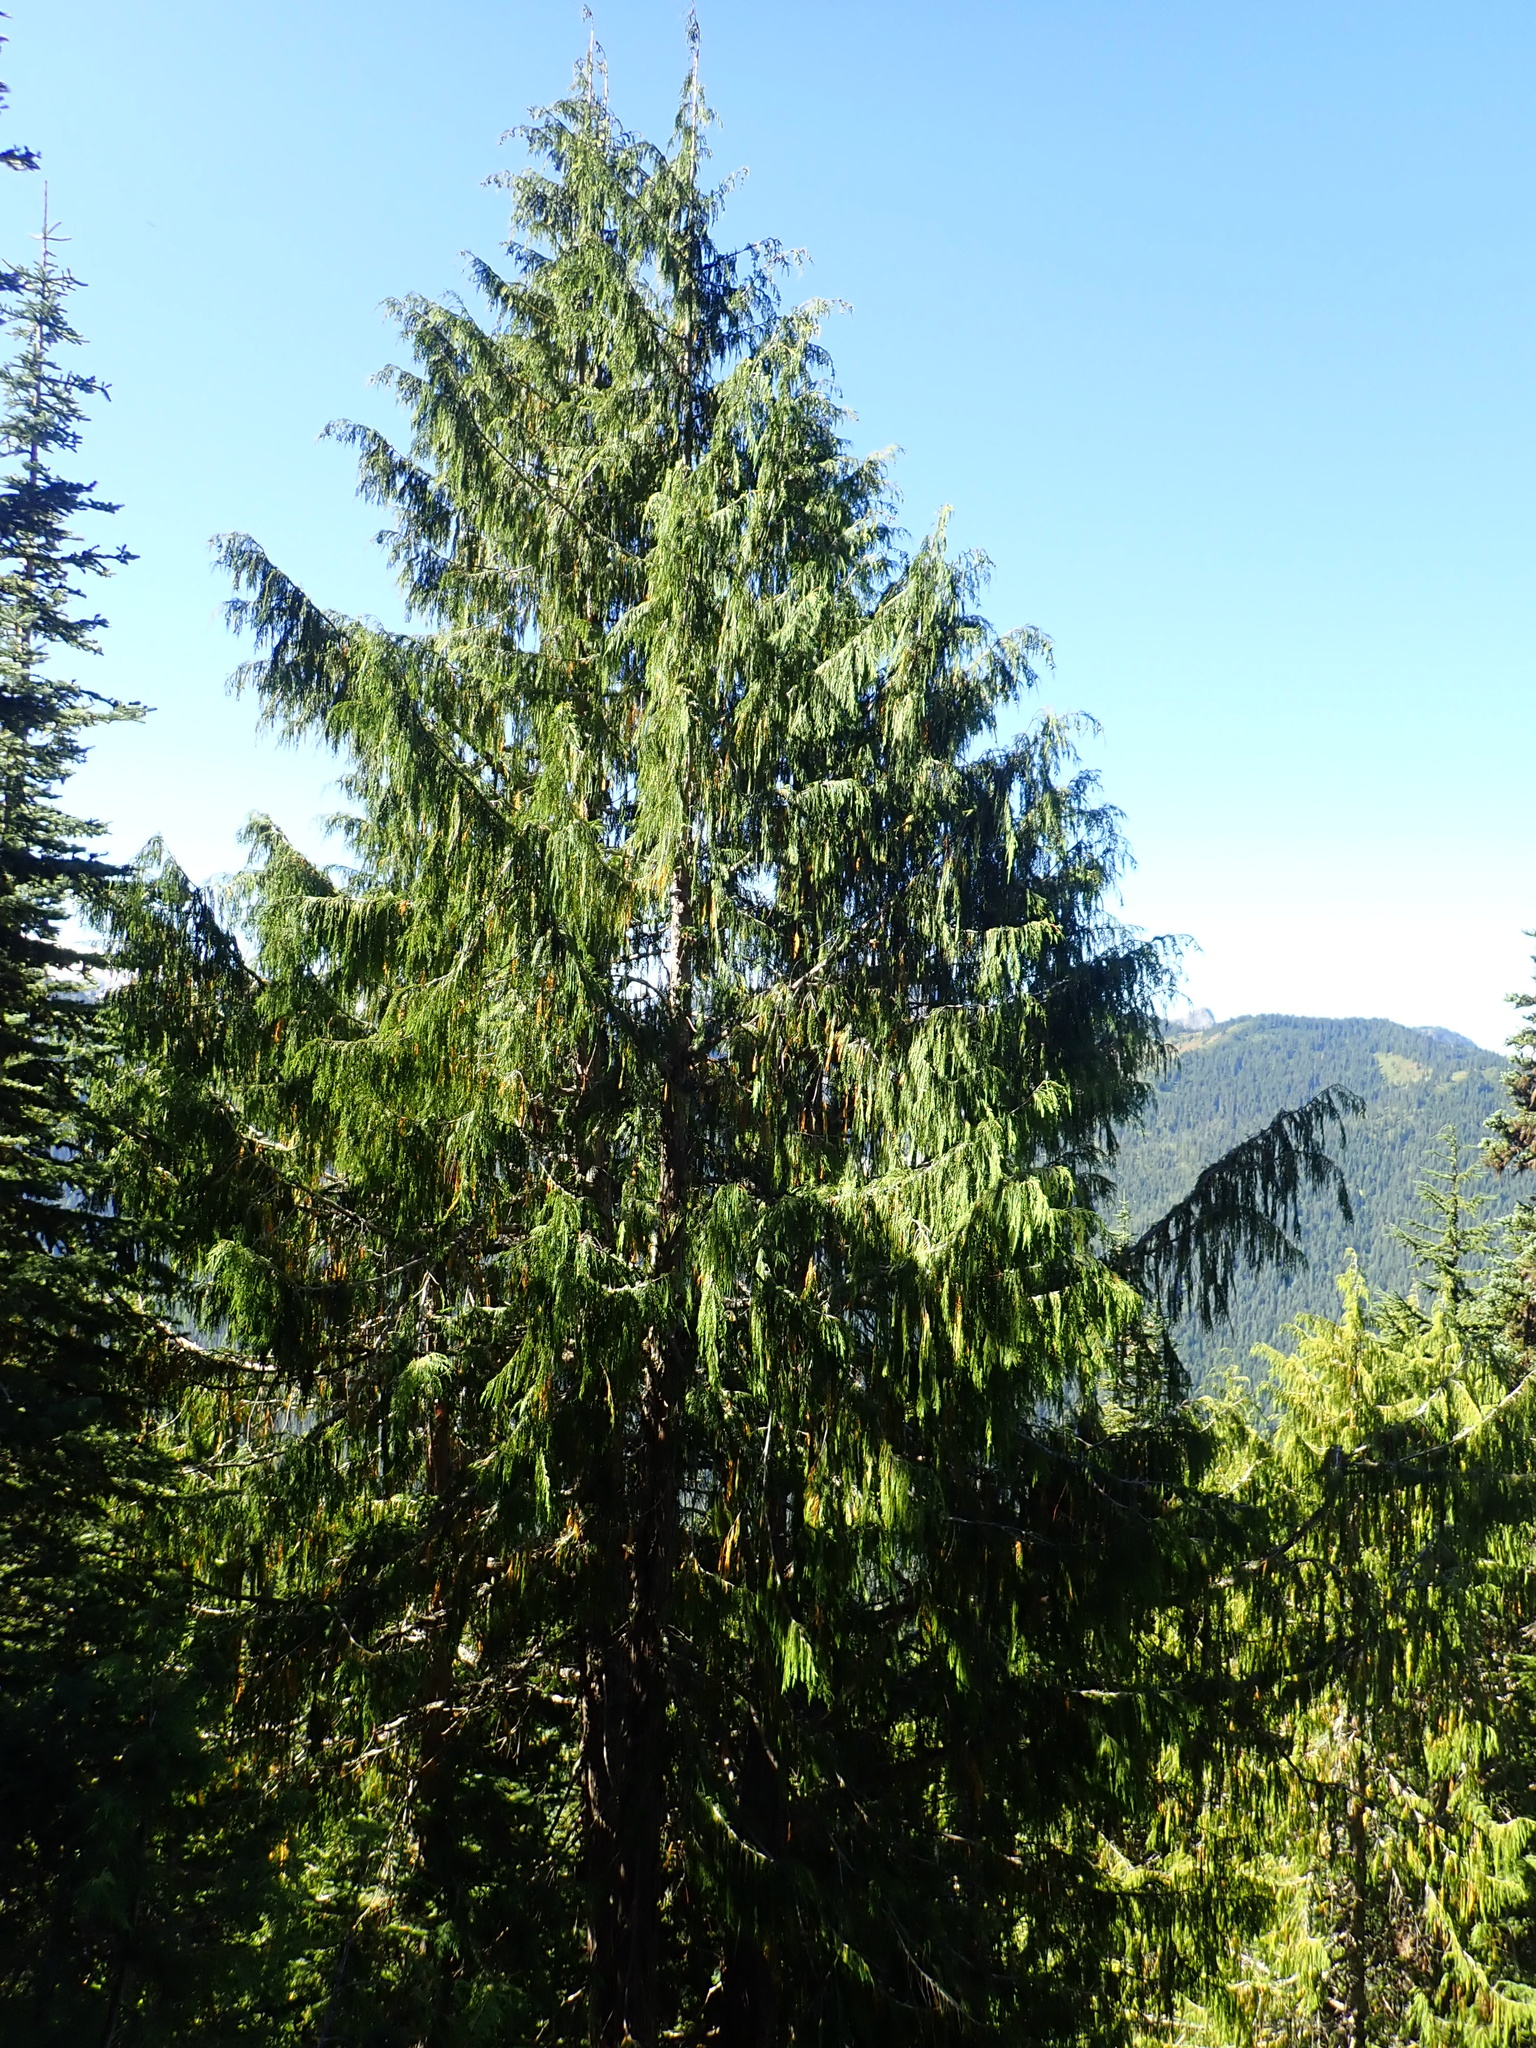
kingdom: Plantae
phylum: Tracheophyta
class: Pinopsida
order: Pinales
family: Cupressaceae
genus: Xanthocyparis
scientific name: Xanthocyparis nootkatensis
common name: Nootka cypress
